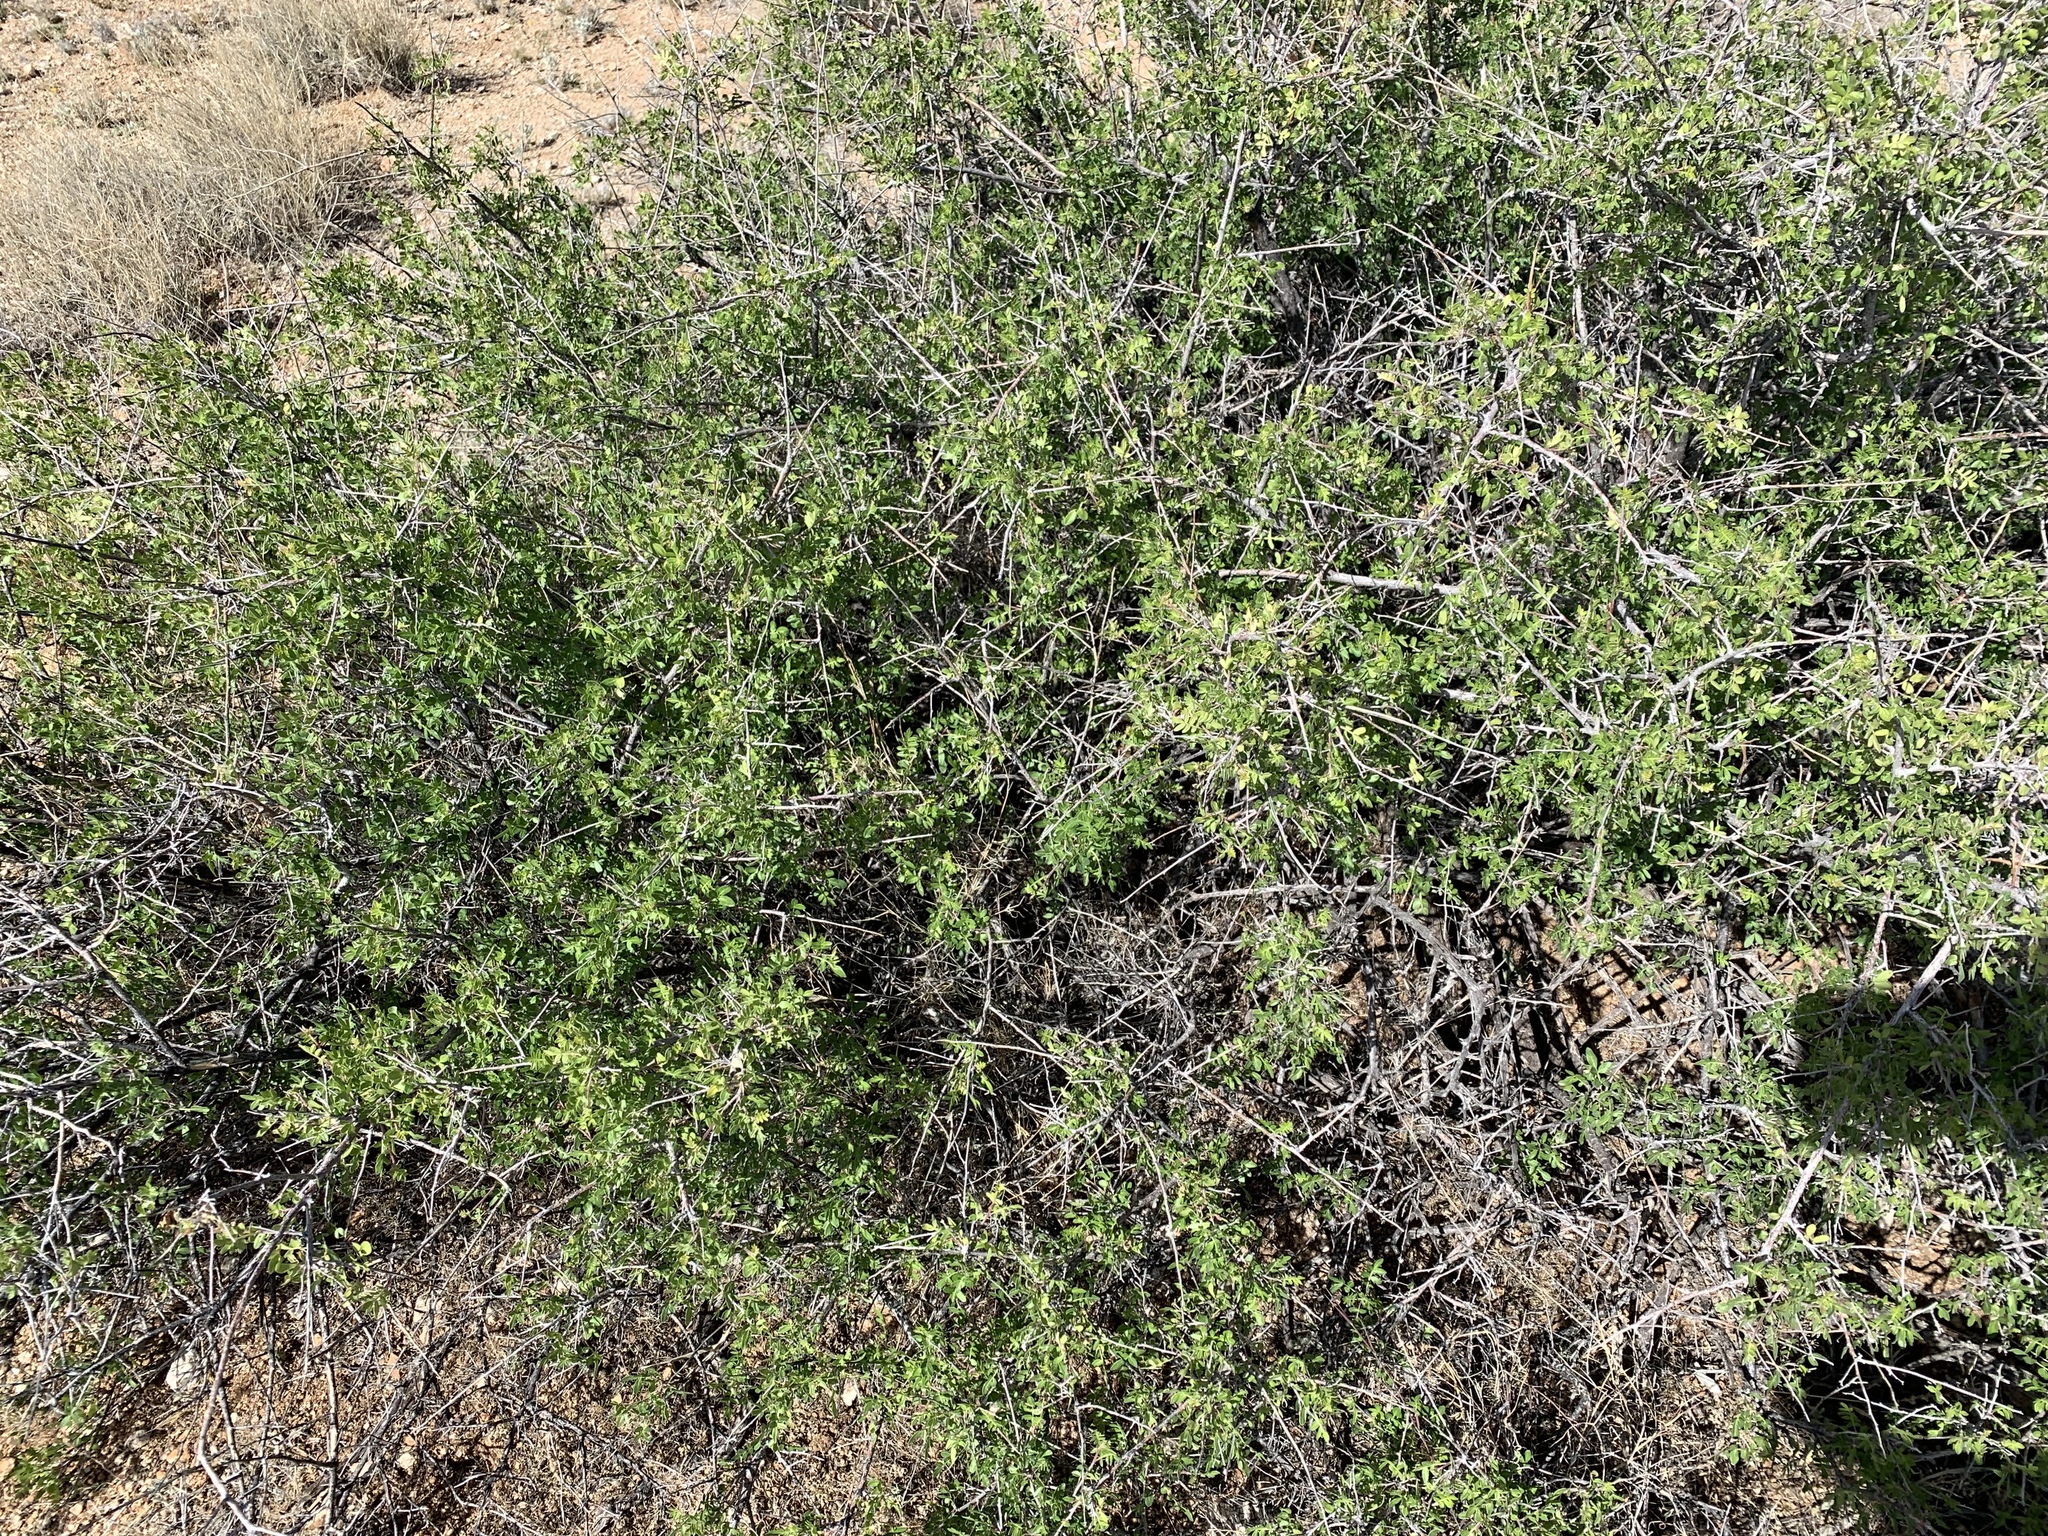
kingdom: Plantae
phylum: Tracheophyta
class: Magnoliopsida
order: Sapindales
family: Anacardiaceae
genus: Rhus
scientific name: Rhus microphylla
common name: Desert sumac
